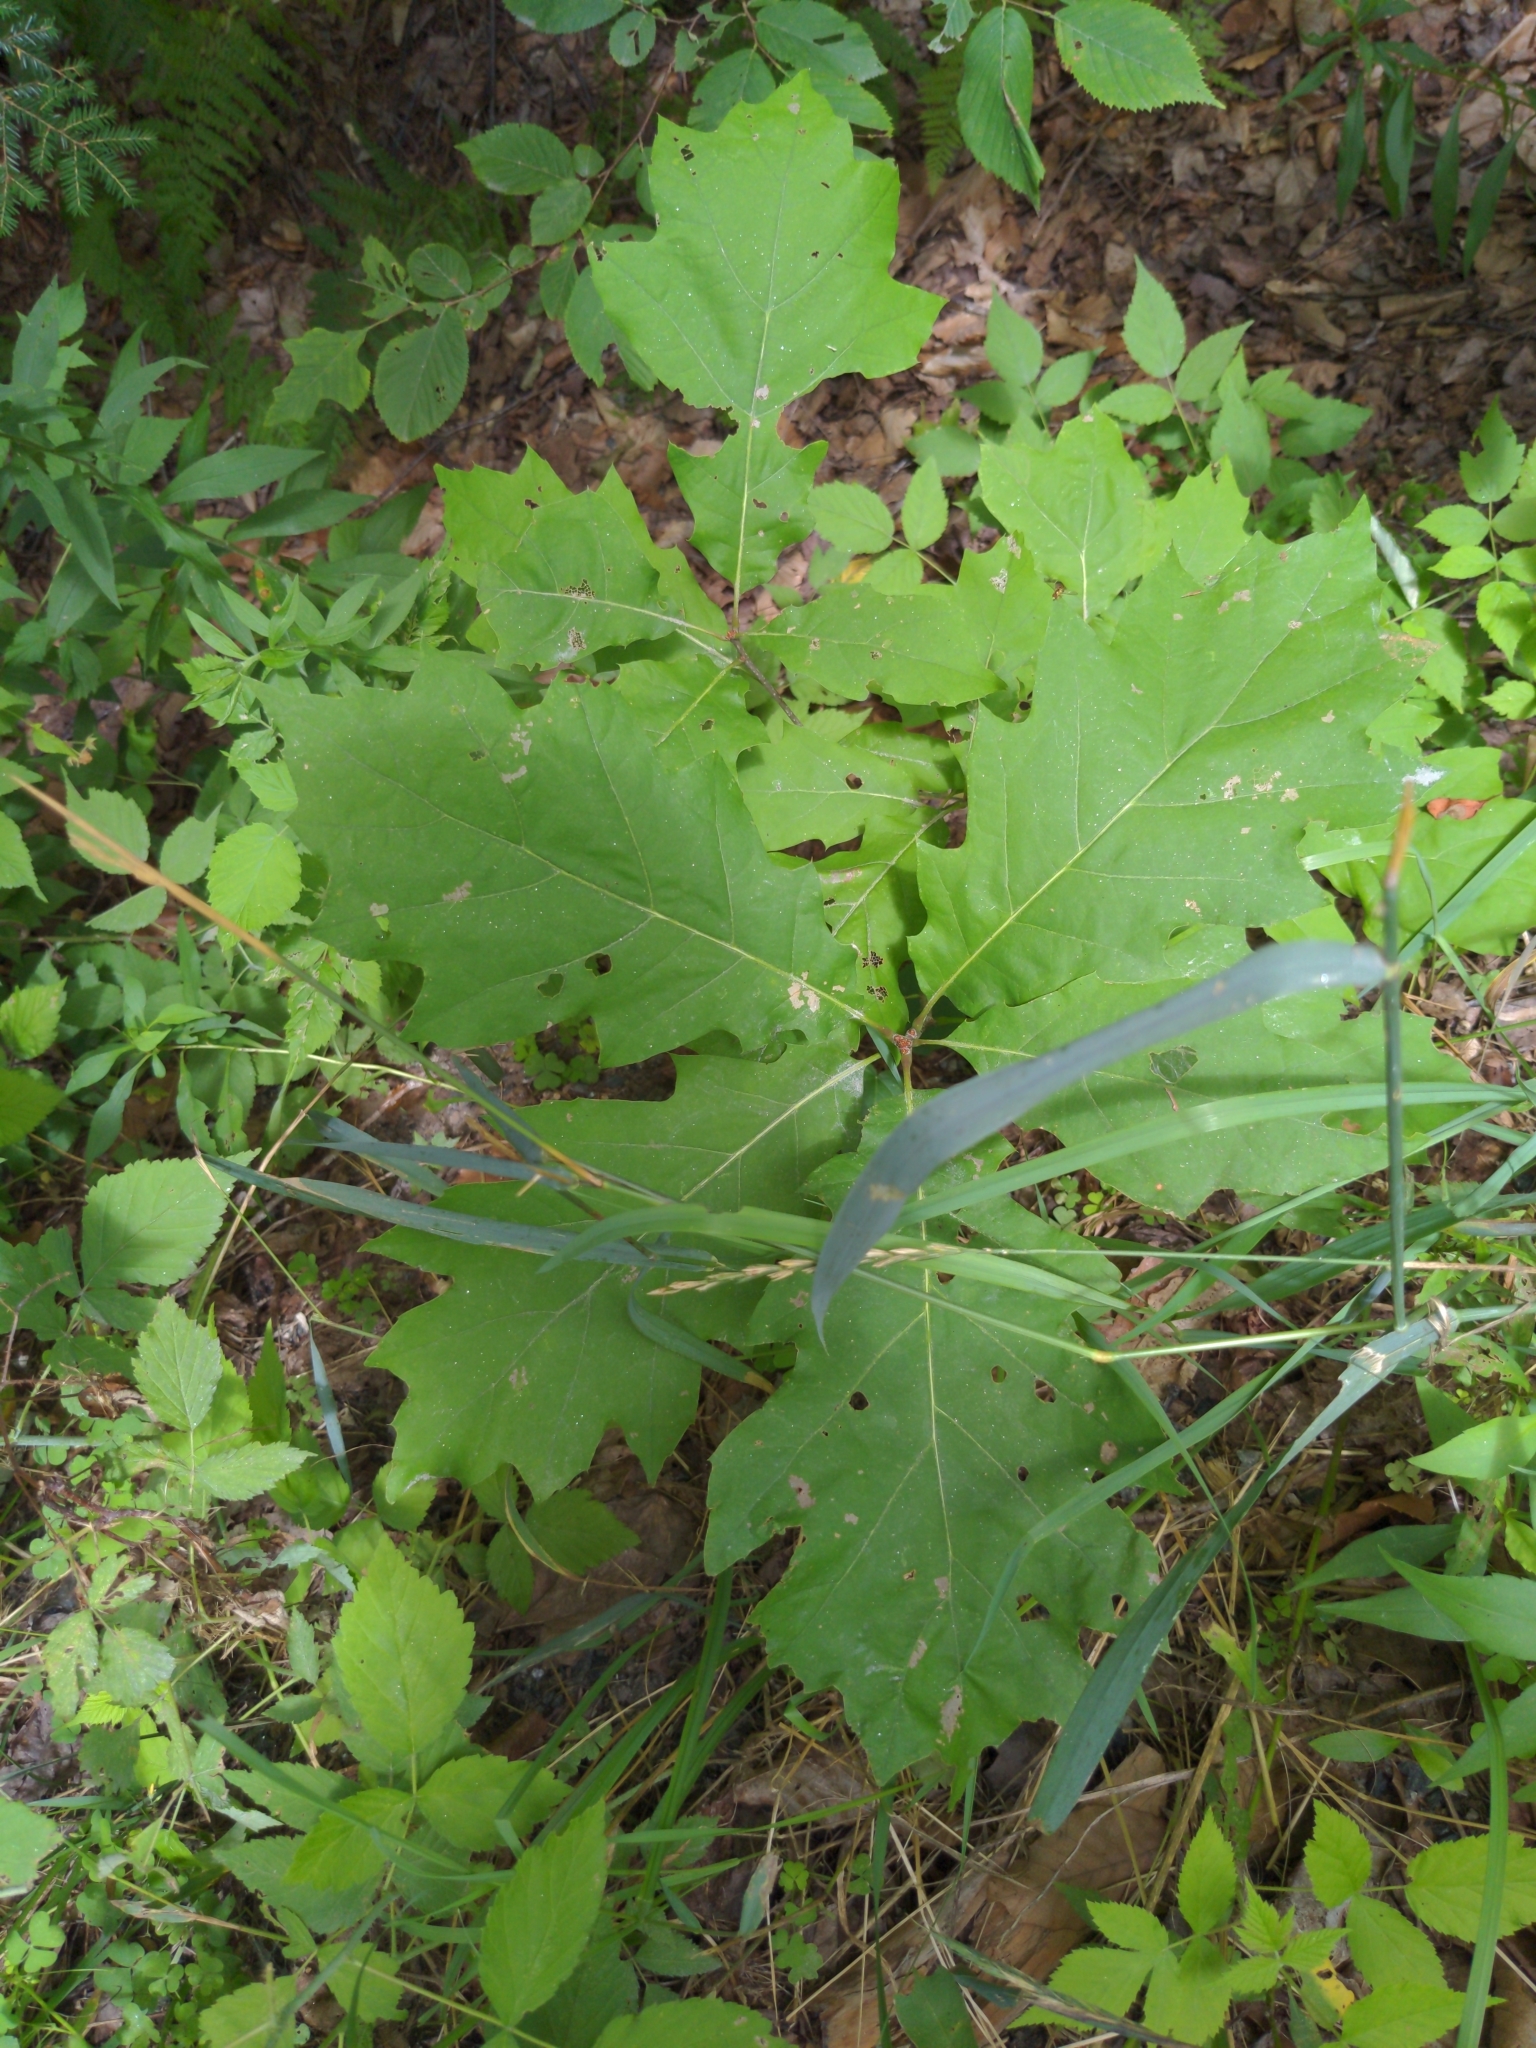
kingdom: Plantae
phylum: Tracheophyta
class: Magnoliopsida
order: Fagales
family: Fagaceae
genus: Quercus
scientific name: Quercus rubra
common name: Red oak
